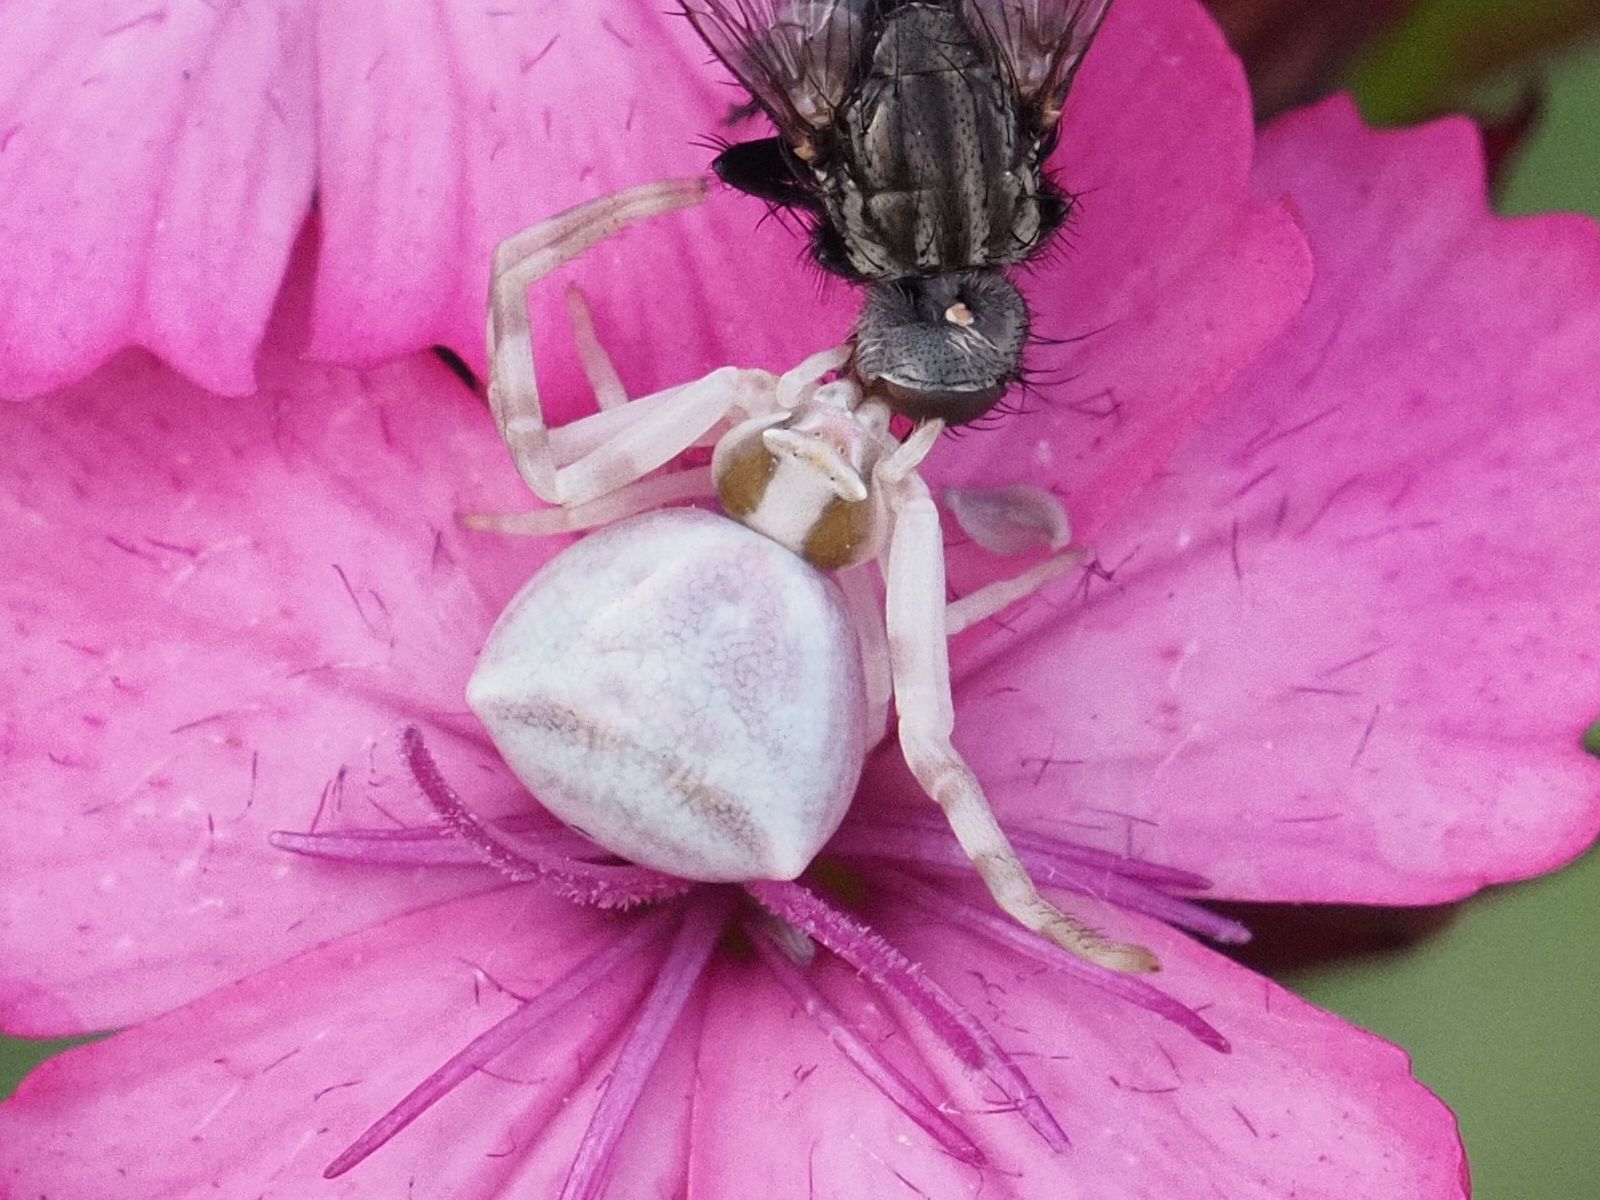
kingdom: Animalia
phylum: Arthropoda
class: Arachnida
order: Araneae
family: Thomisidae
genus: Thomisus
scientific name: Thomisus onustus
